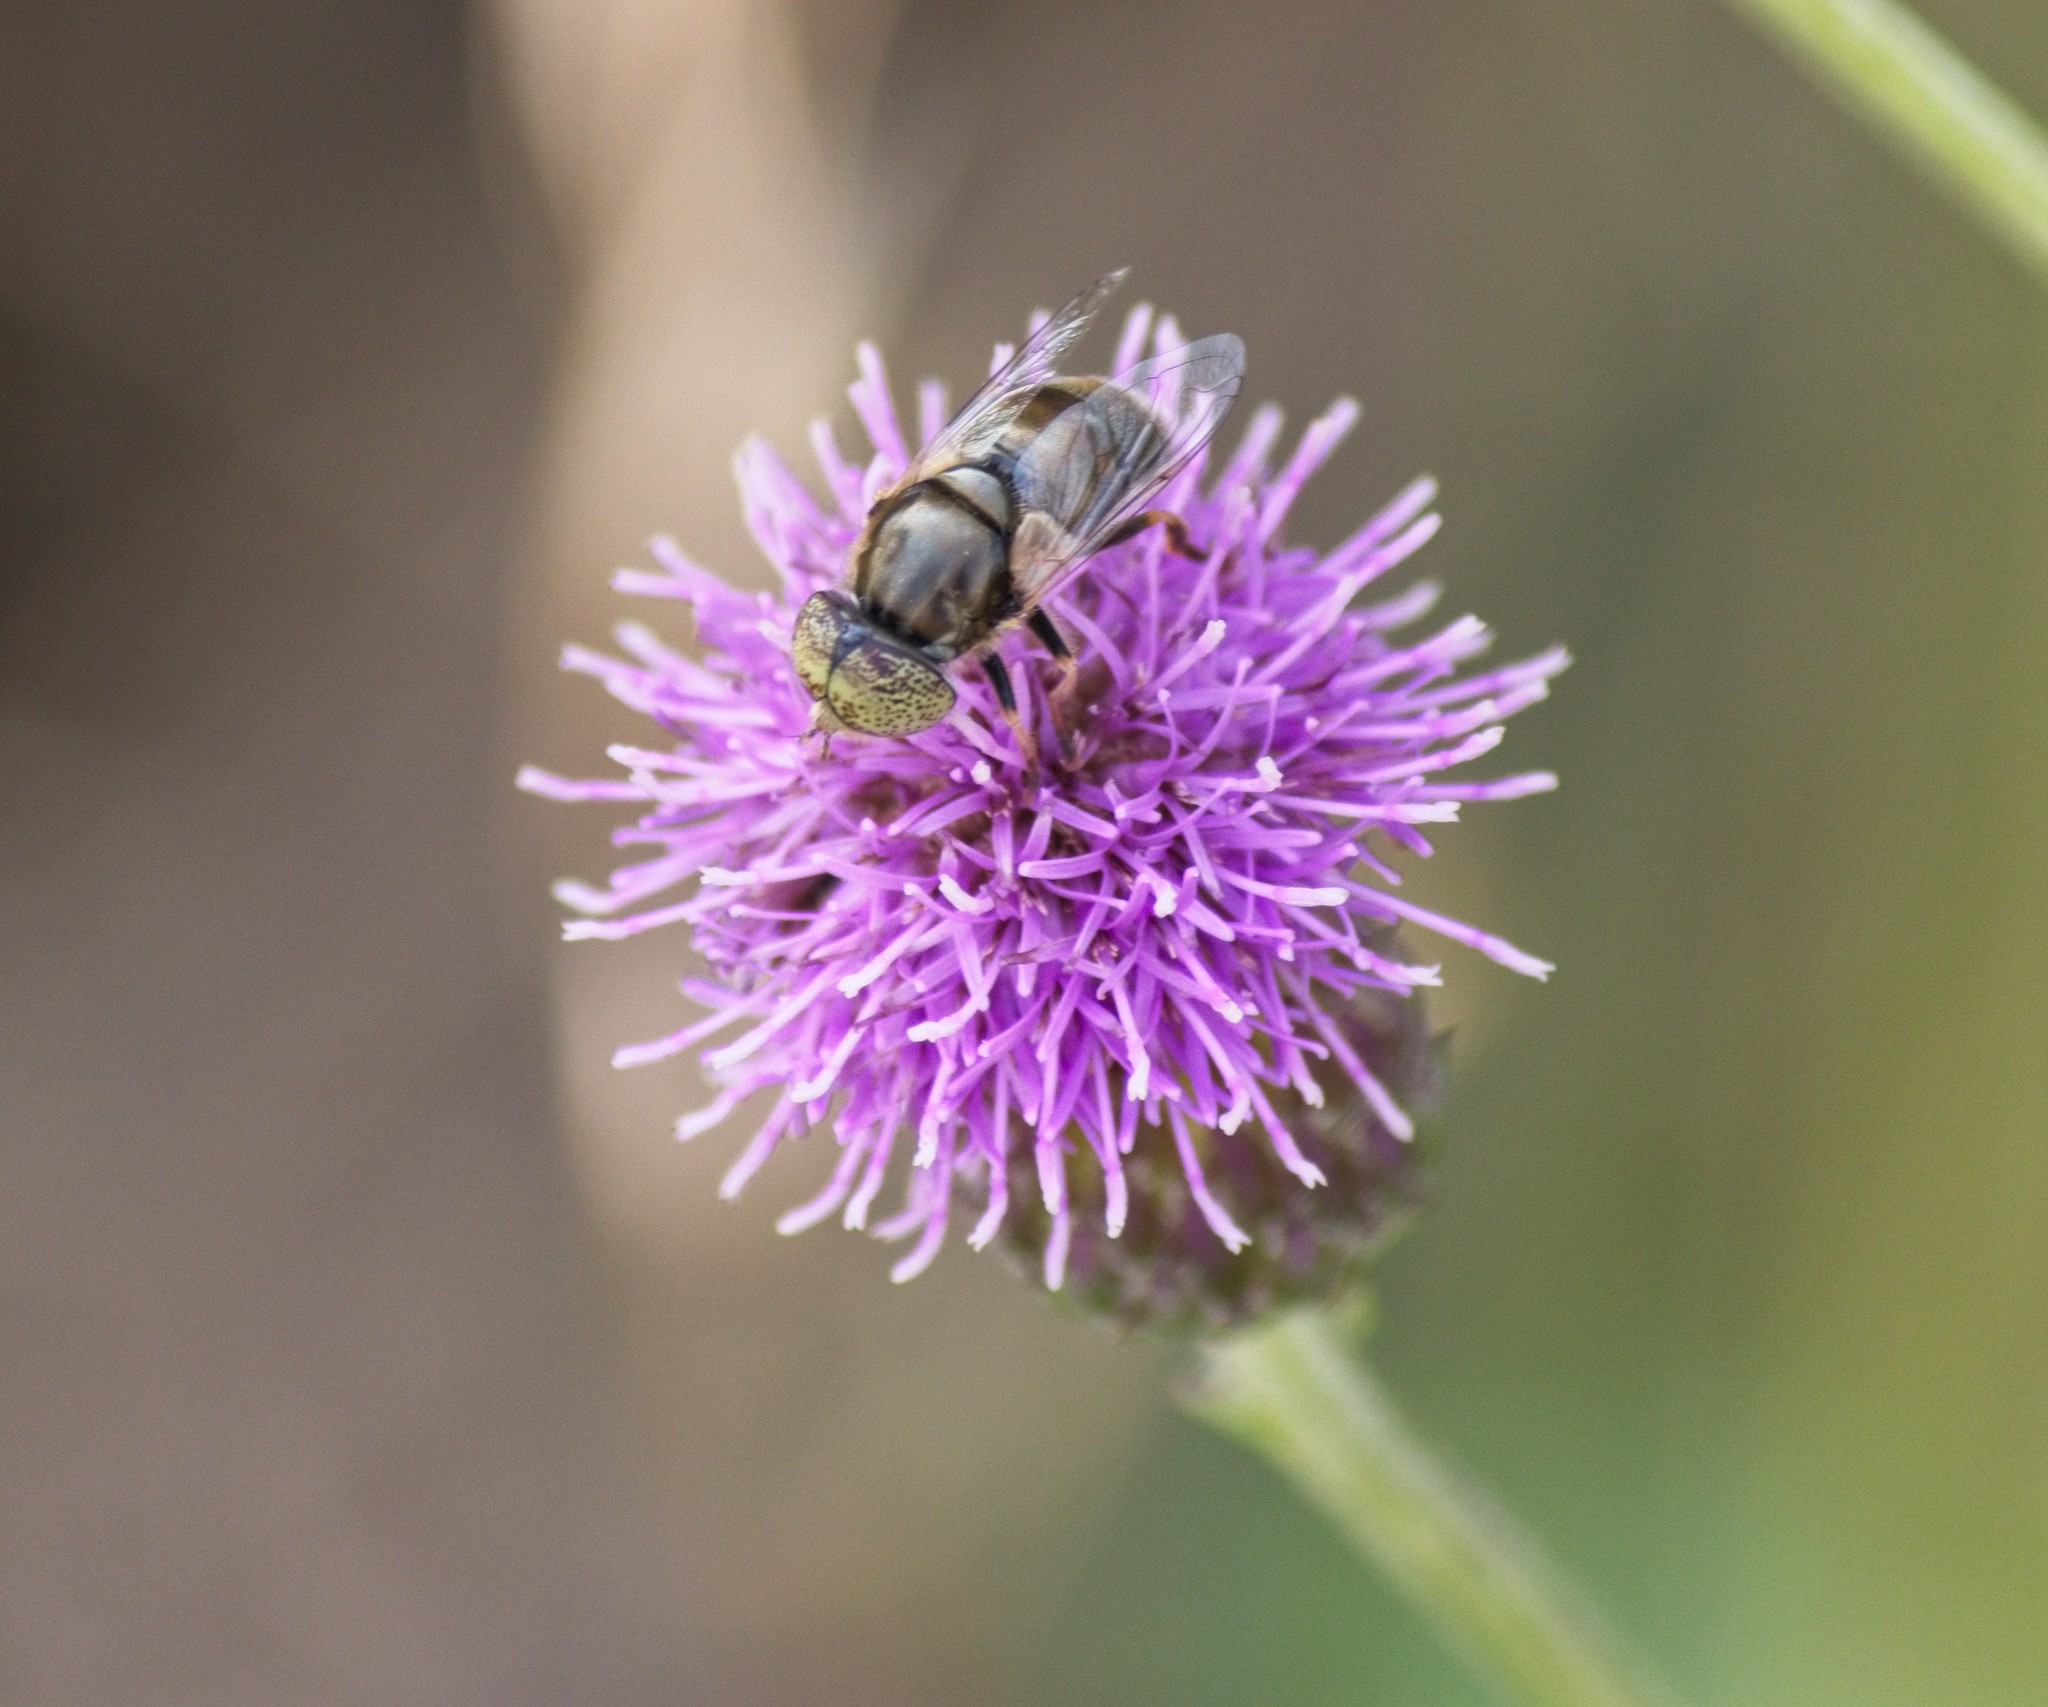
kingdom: Animalia
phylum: Arthropoda
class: Insecta
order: Diptera
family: Syrphidae
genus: Eristalinus
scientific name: Eristalinus aeneus
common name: Syrphid fly
